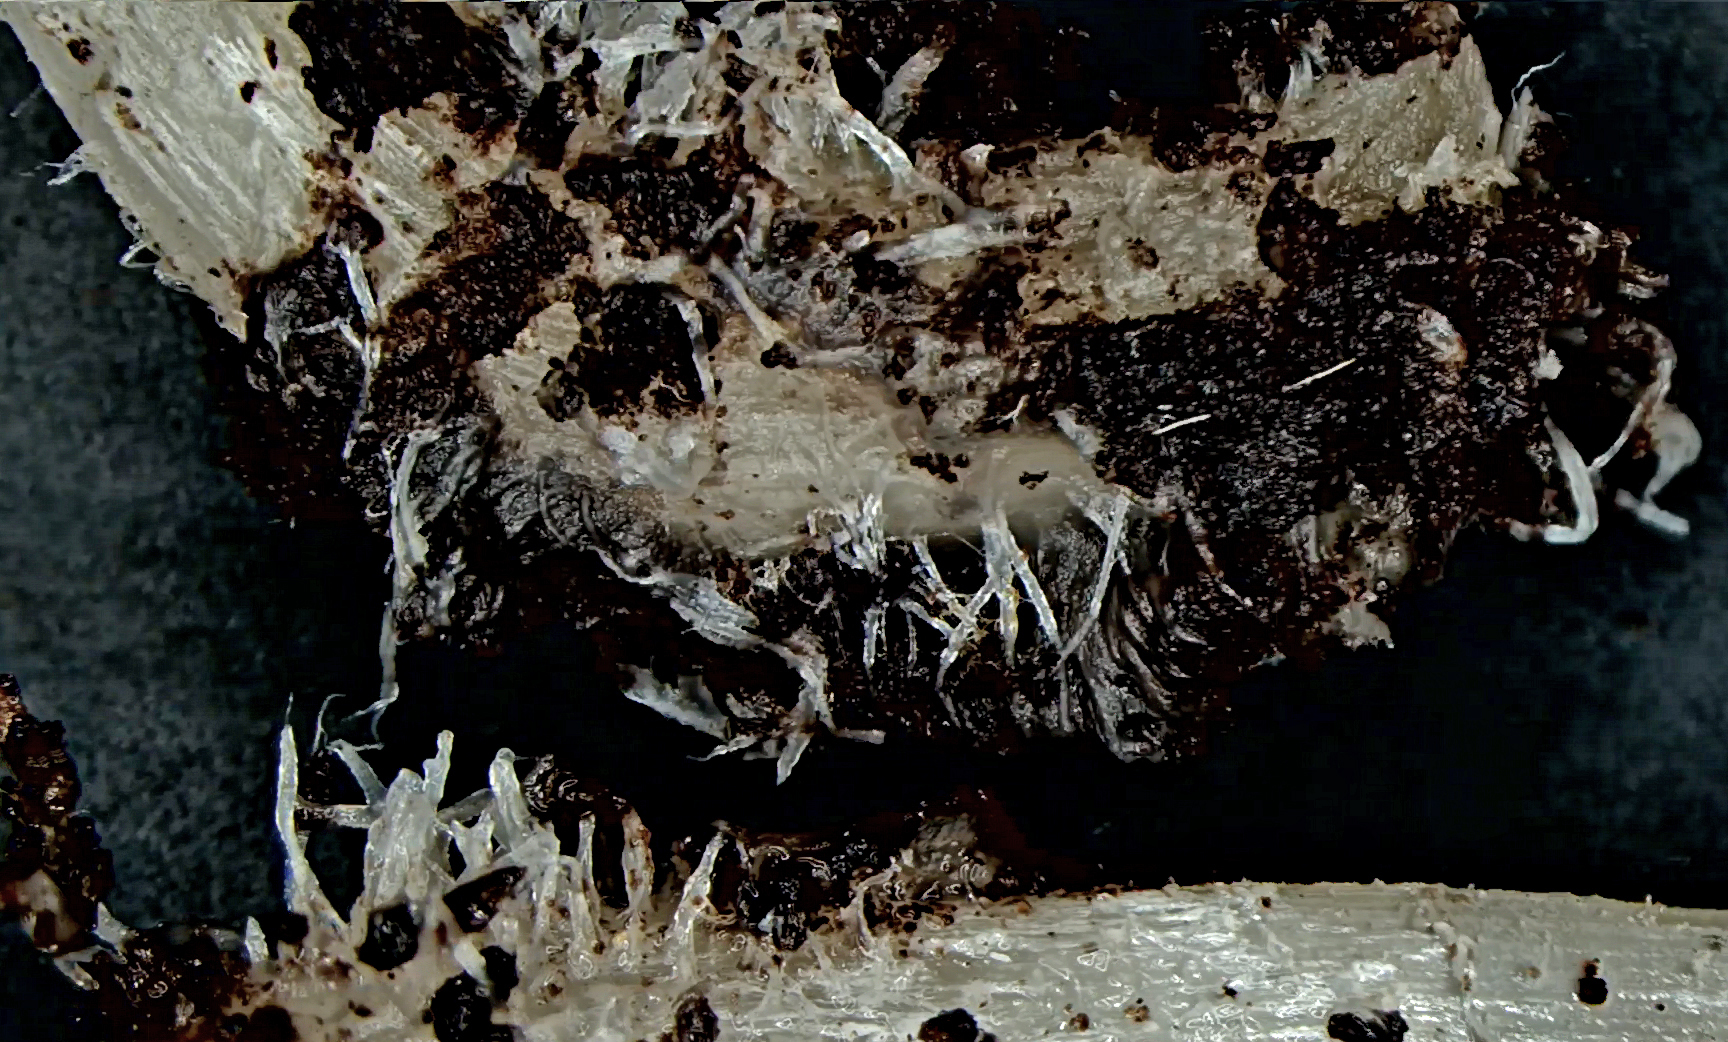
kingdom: Fungi
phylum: Basidiomycota
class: Agaricomycetes
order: Agaricales
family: Psathyrellaceae
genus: Psathyrella
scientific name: Psathyrella pseudogracilis
